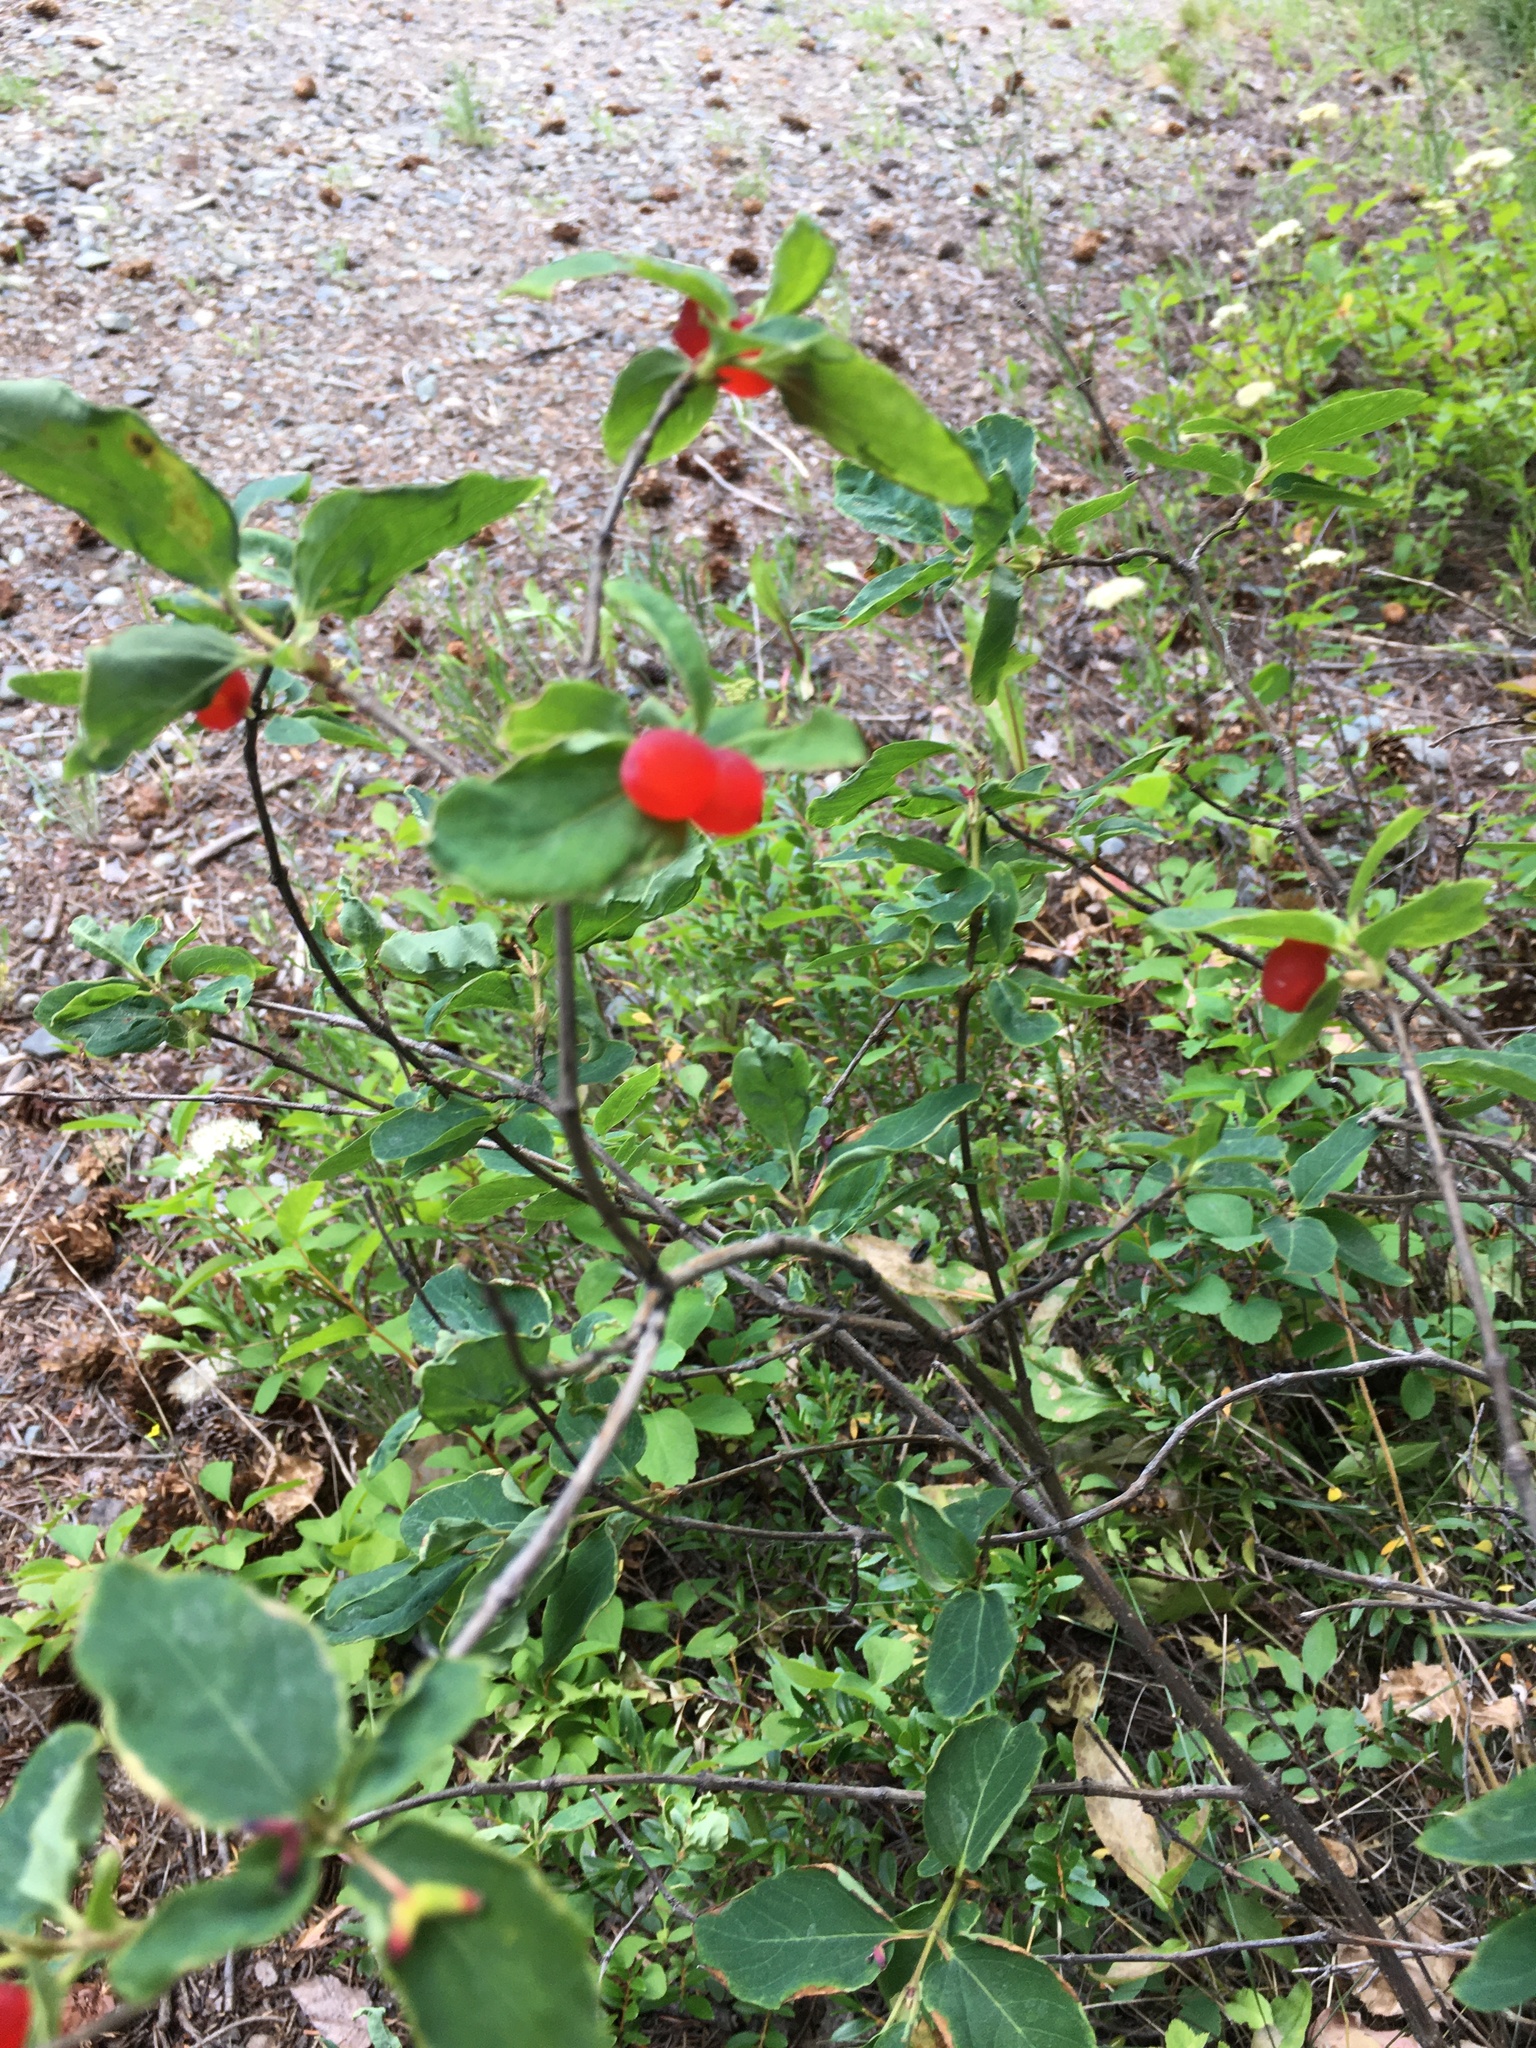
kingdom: Plantae
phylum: Tracheophyta
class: Magnoliopsida
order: Dipsacales
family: Caprifoliaceae
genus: Lonicera
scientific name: Lonicera utahensis
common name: Utah honeysuckle
